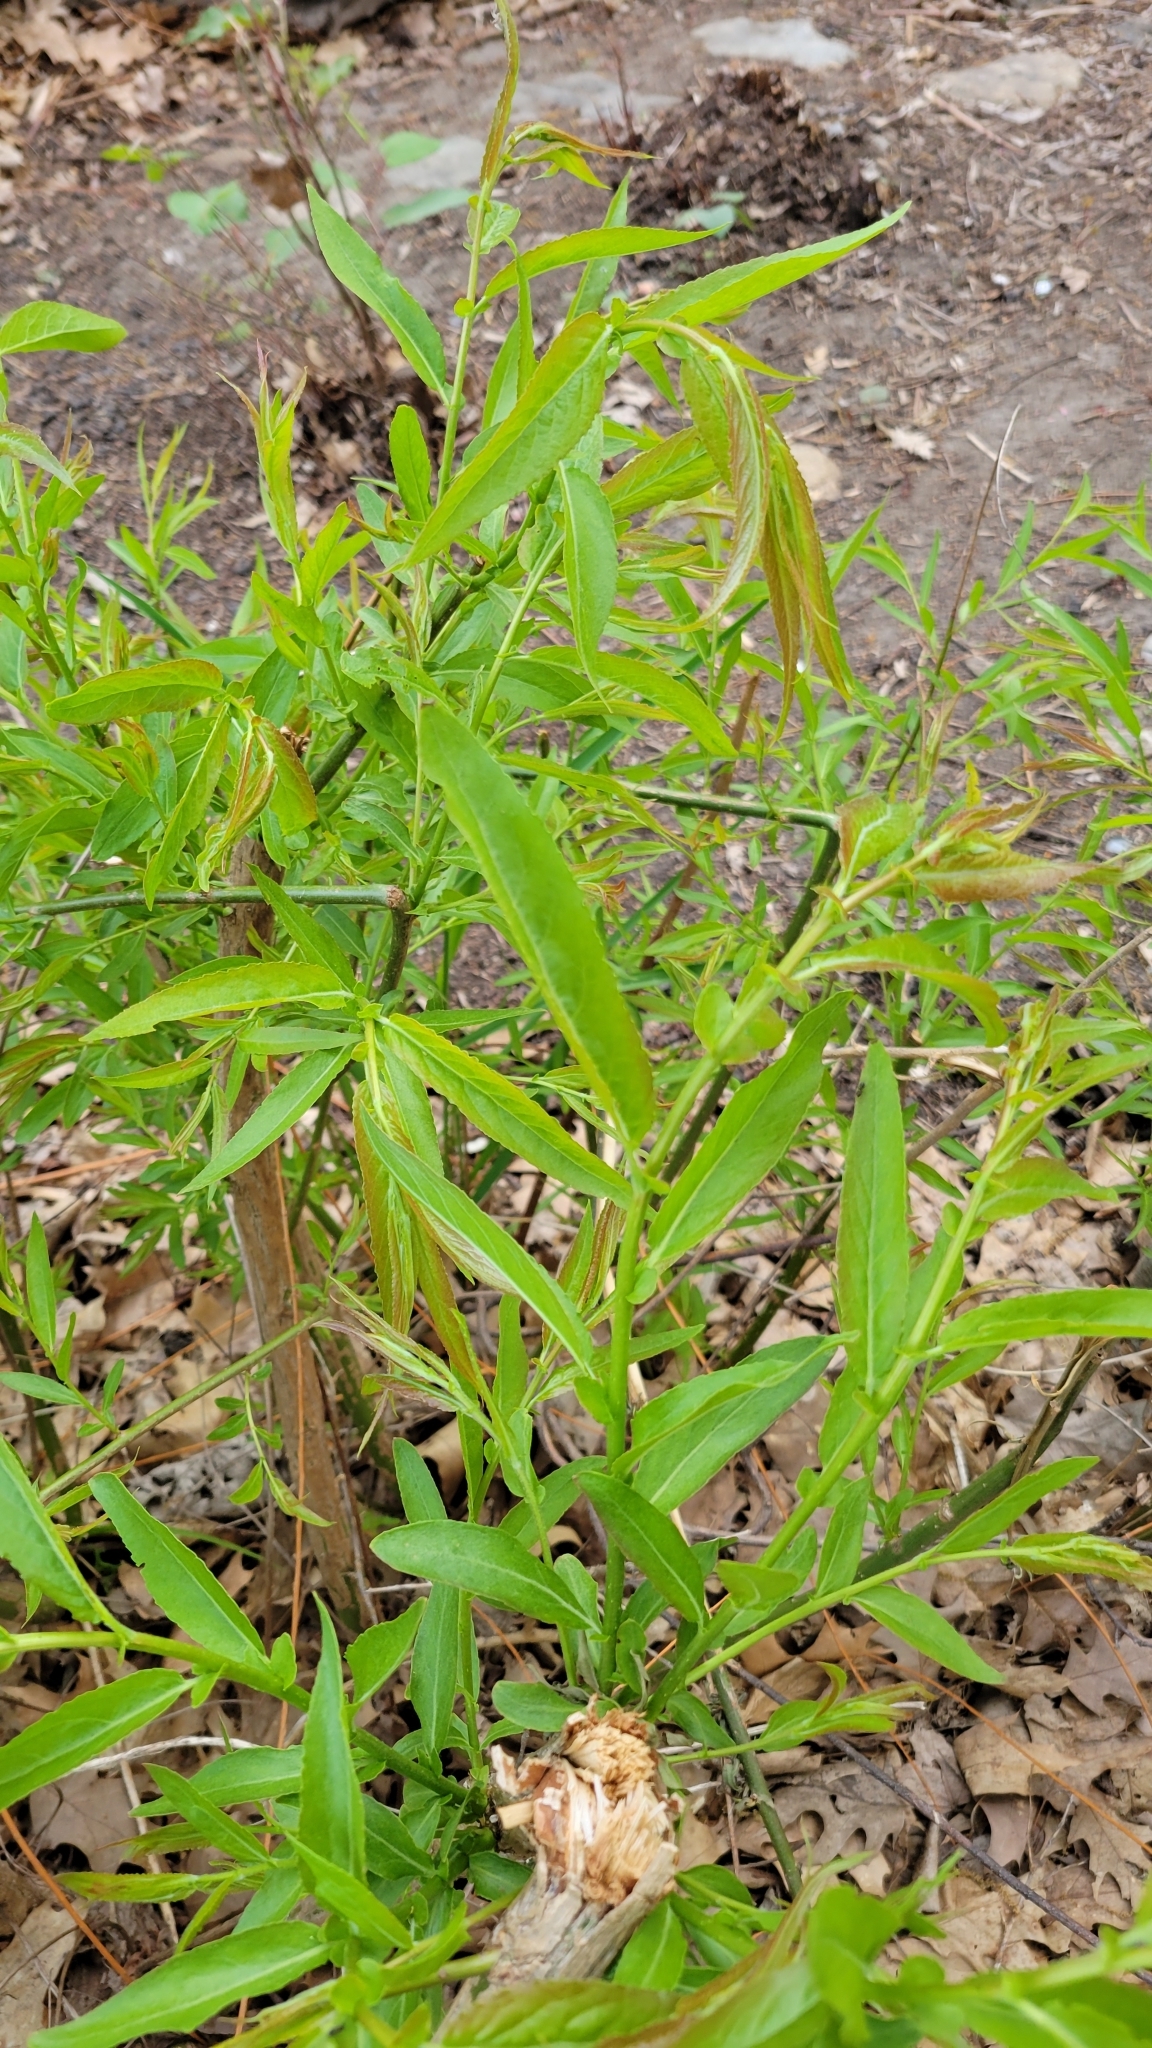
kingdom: Plantae
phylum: Tracheophyta
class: Magnoliopsida
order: Malpighiales
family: Salicaceae
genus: Salix
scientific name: Salix eriocephala
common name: Heart-leaved willow
